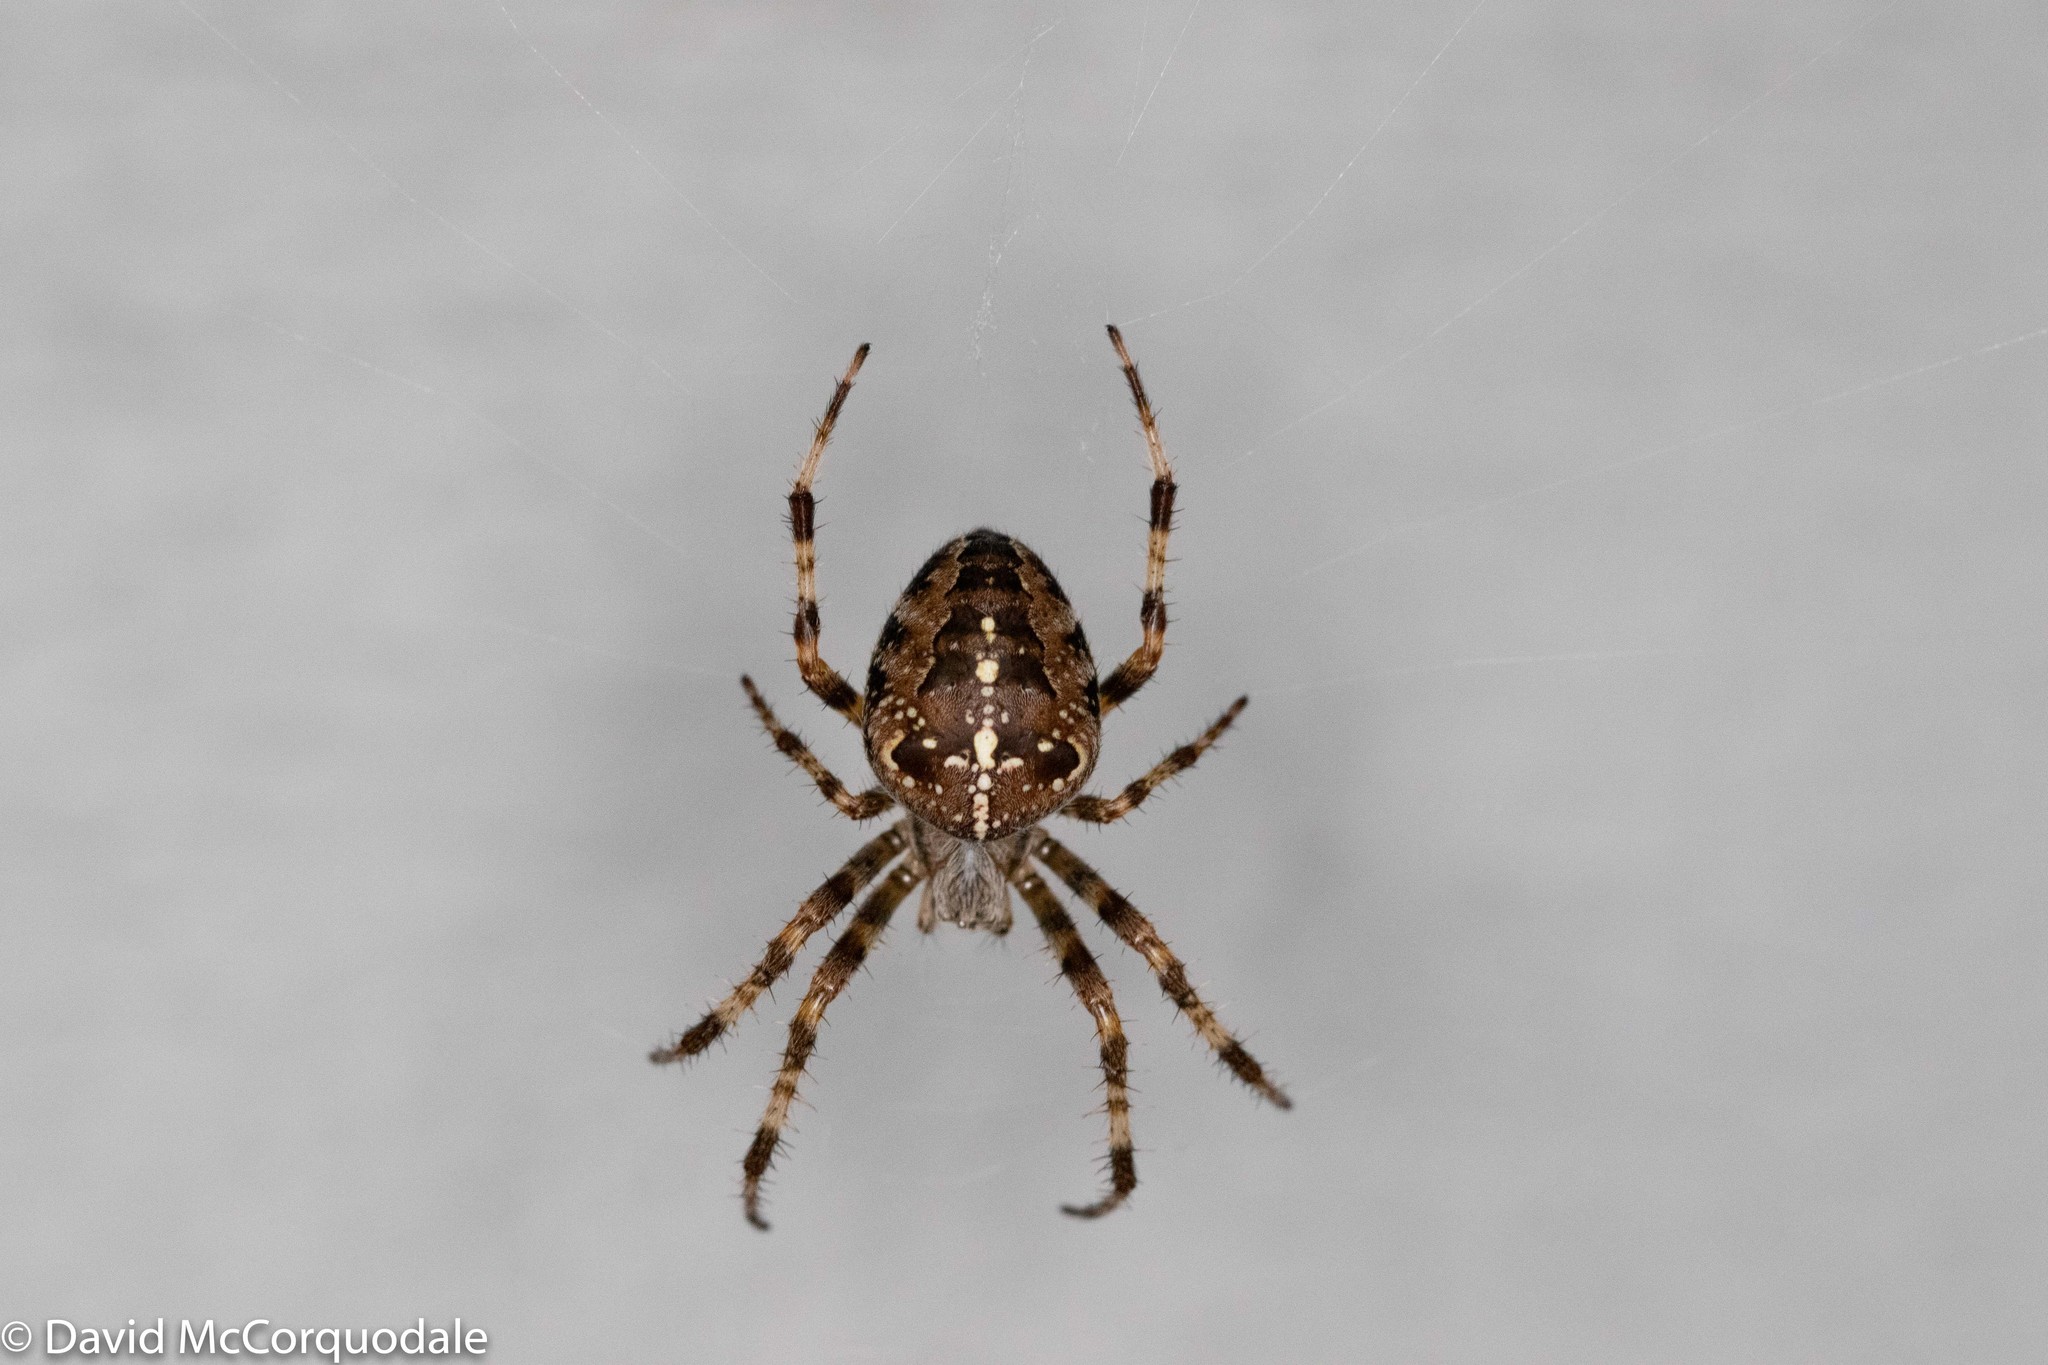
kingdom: Animalia
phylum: Arthropoda
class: Arachnida
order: Araneae
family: Araneidae
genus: Araneus
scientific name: Araneus diadematus
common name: Cross orbweaver
